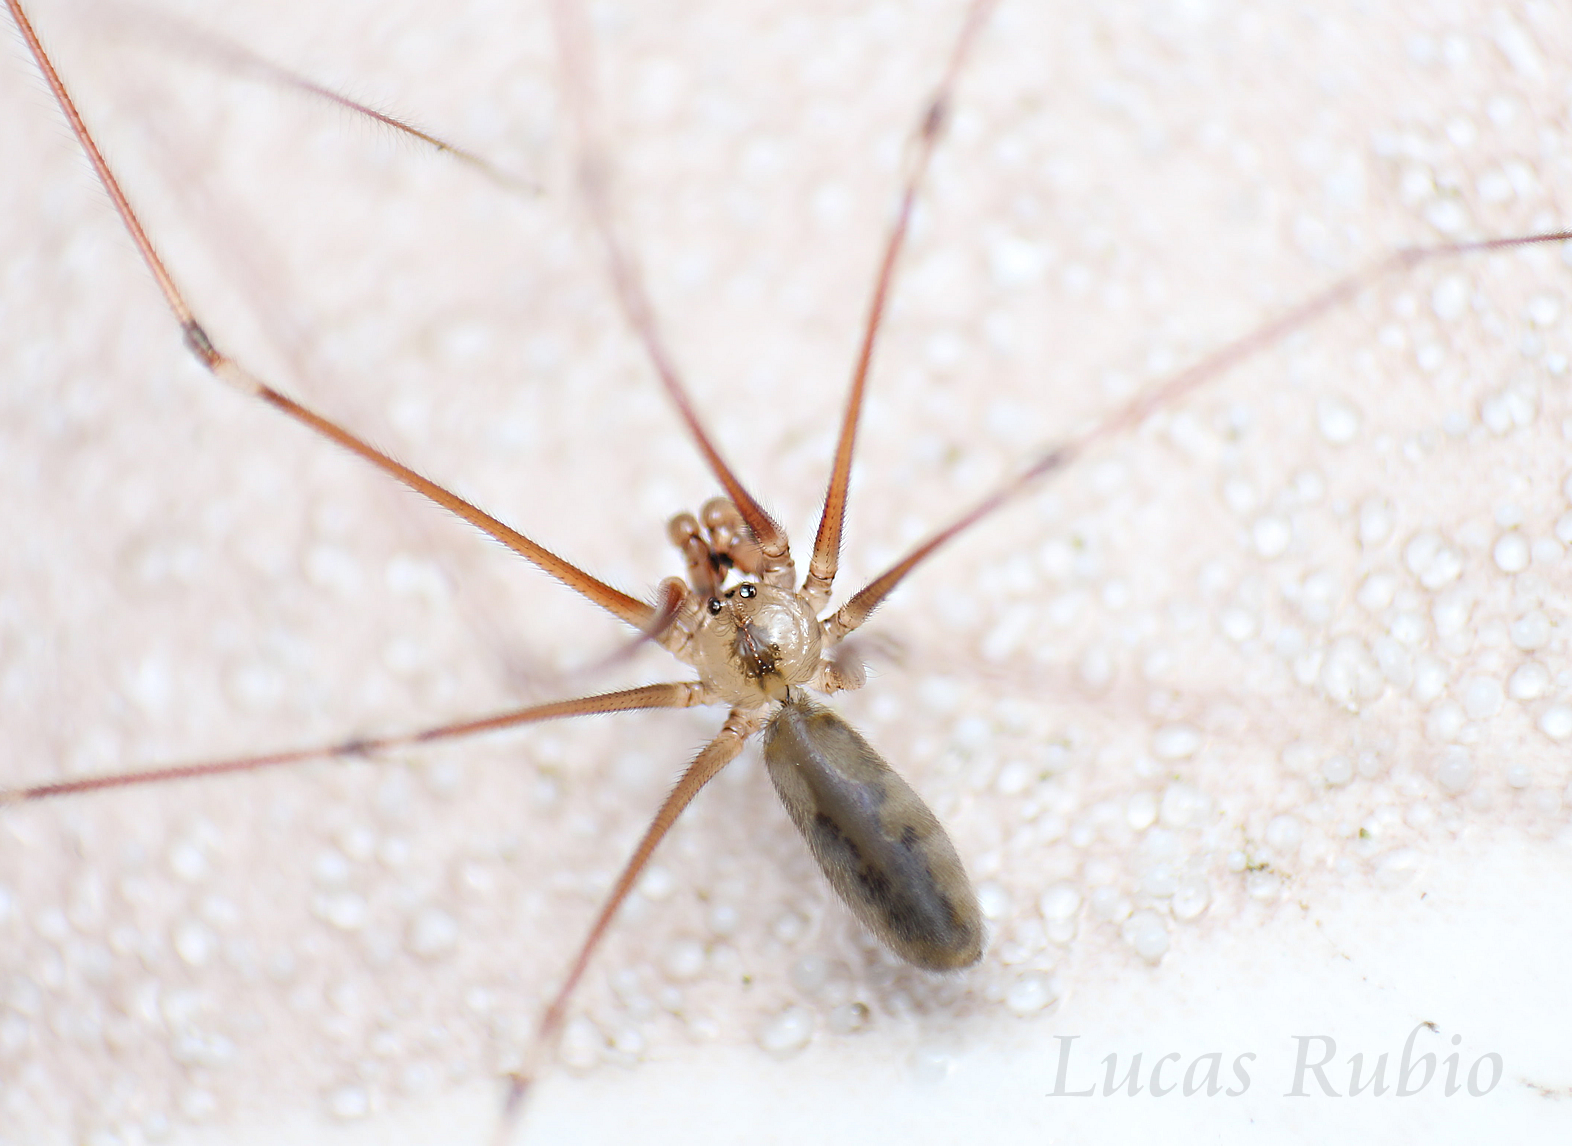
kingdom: Animalia
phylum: Arthropoda
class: Arachnida
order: Araneae
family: Pholcidae
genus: Pholcus
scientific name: Pholcus phalangioides
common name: Longbodied cellar spider
